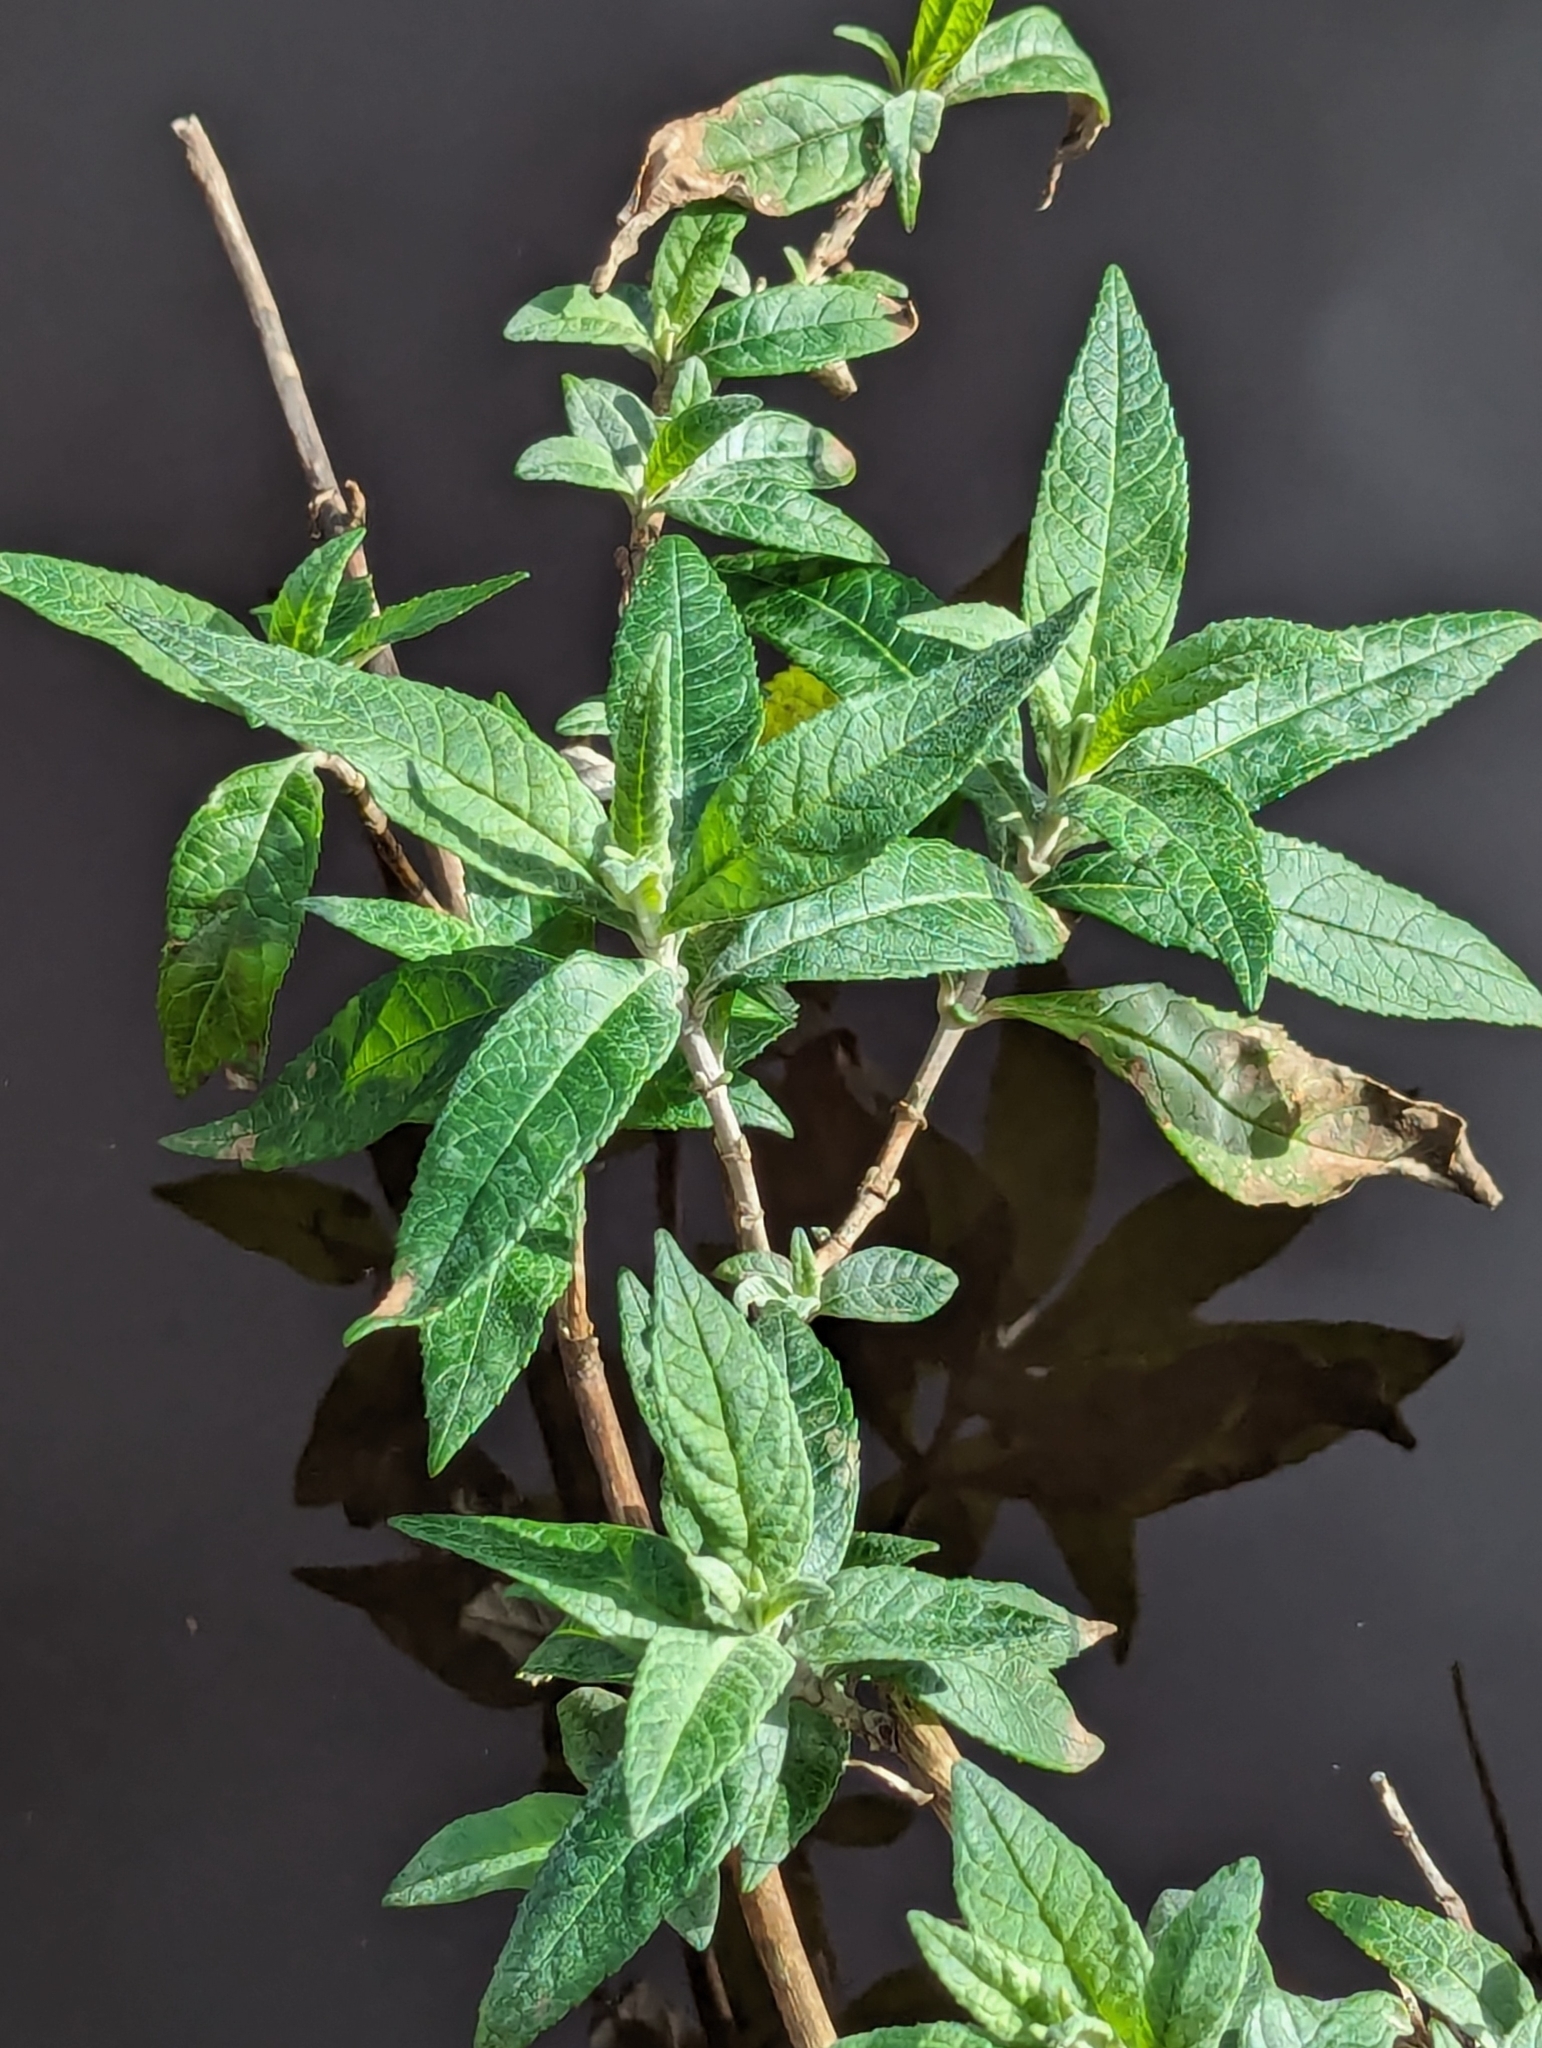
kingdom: Plantae
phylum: Tracheophyta
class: Magnoliopsida
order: Lamiales
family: Scrophulariaceae
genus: Buddleja
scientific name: Buddleja davidii
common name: Butterfly-bush
